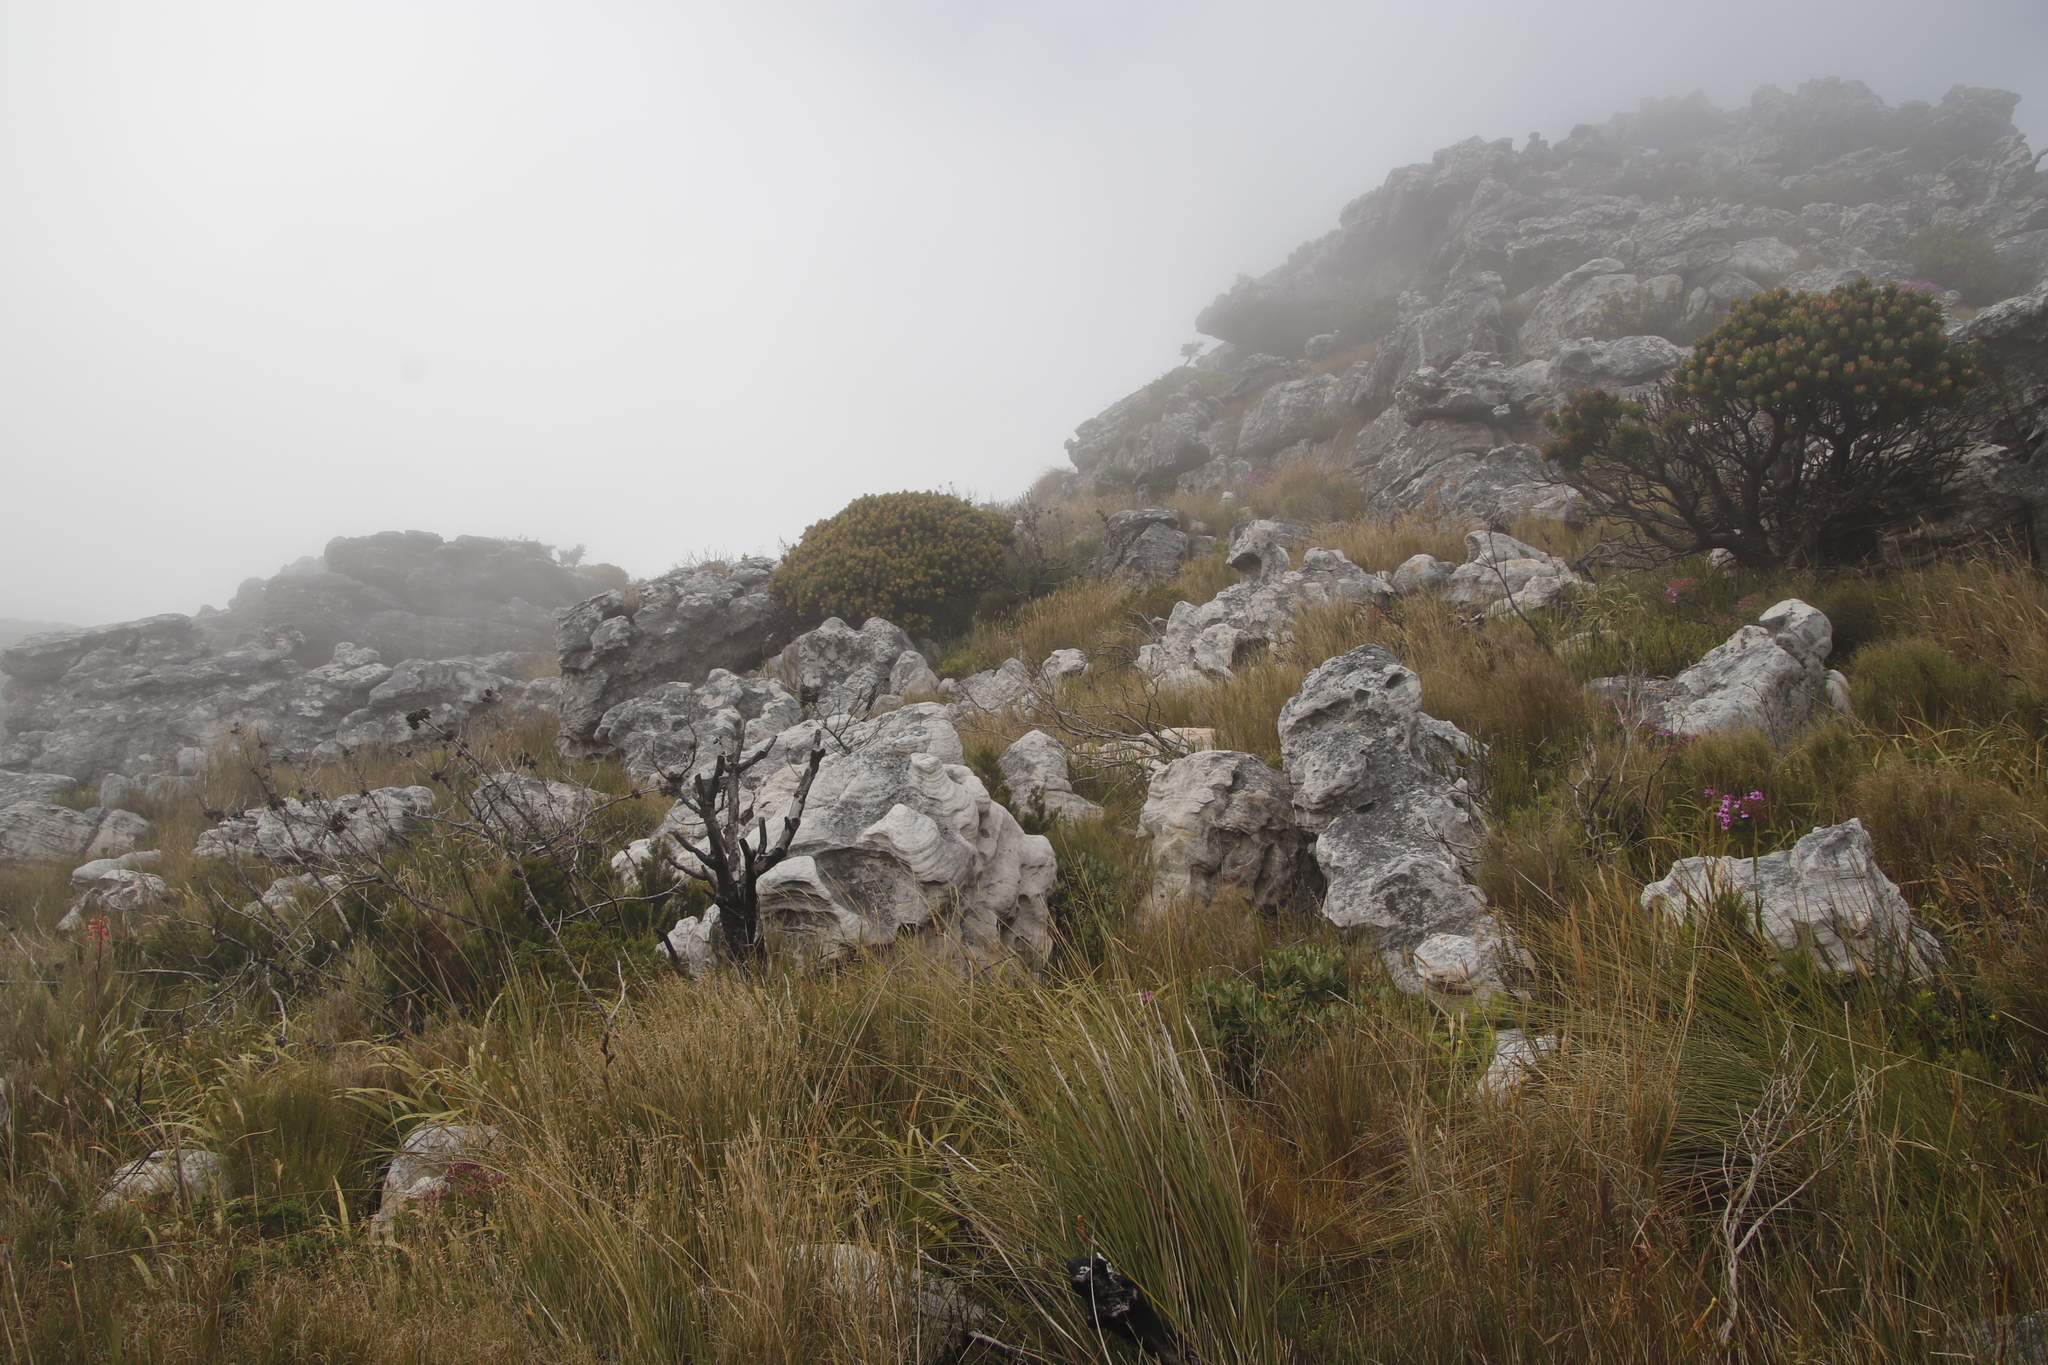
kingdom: Plantae
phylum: Tracheophyta
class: Magnoliopsida
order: Proteales
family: Proteaceae
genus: Mimetes
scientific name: Mimetes fimbriifolius
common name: Fringed bottlebrush
